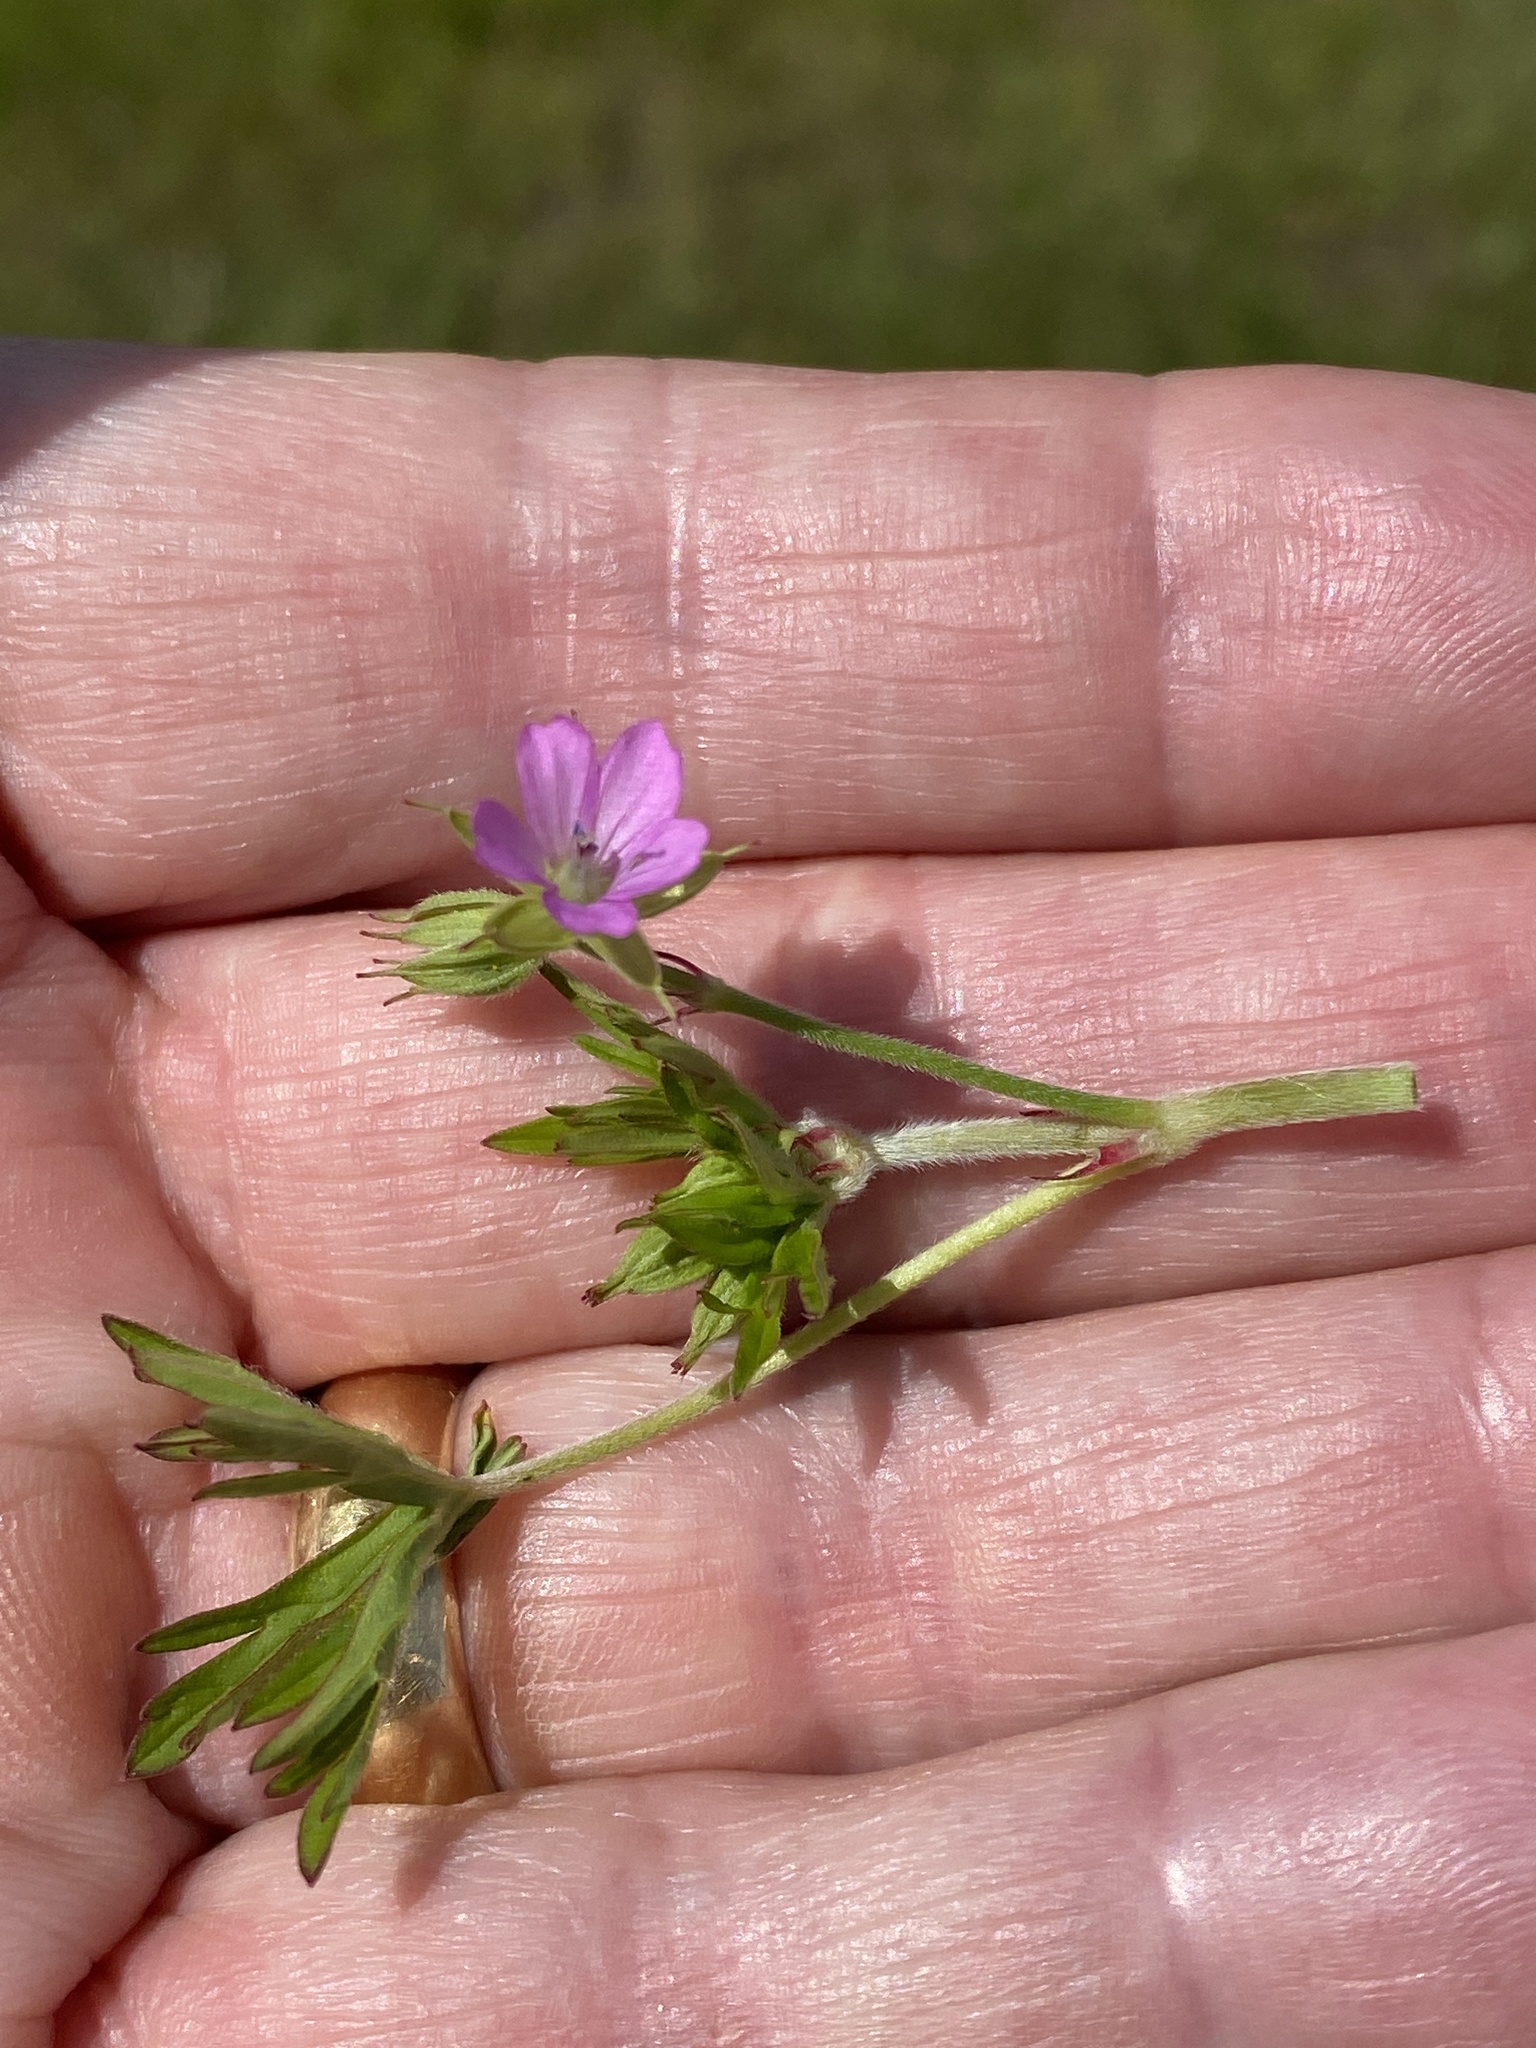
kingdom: Plantae
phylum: Tracheophyta
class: Magnoliopsida
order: Geraniales
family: Geraniaceae
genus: Geranium
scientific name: Geranium dissectum
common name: Cut-leaved crane's-bill
